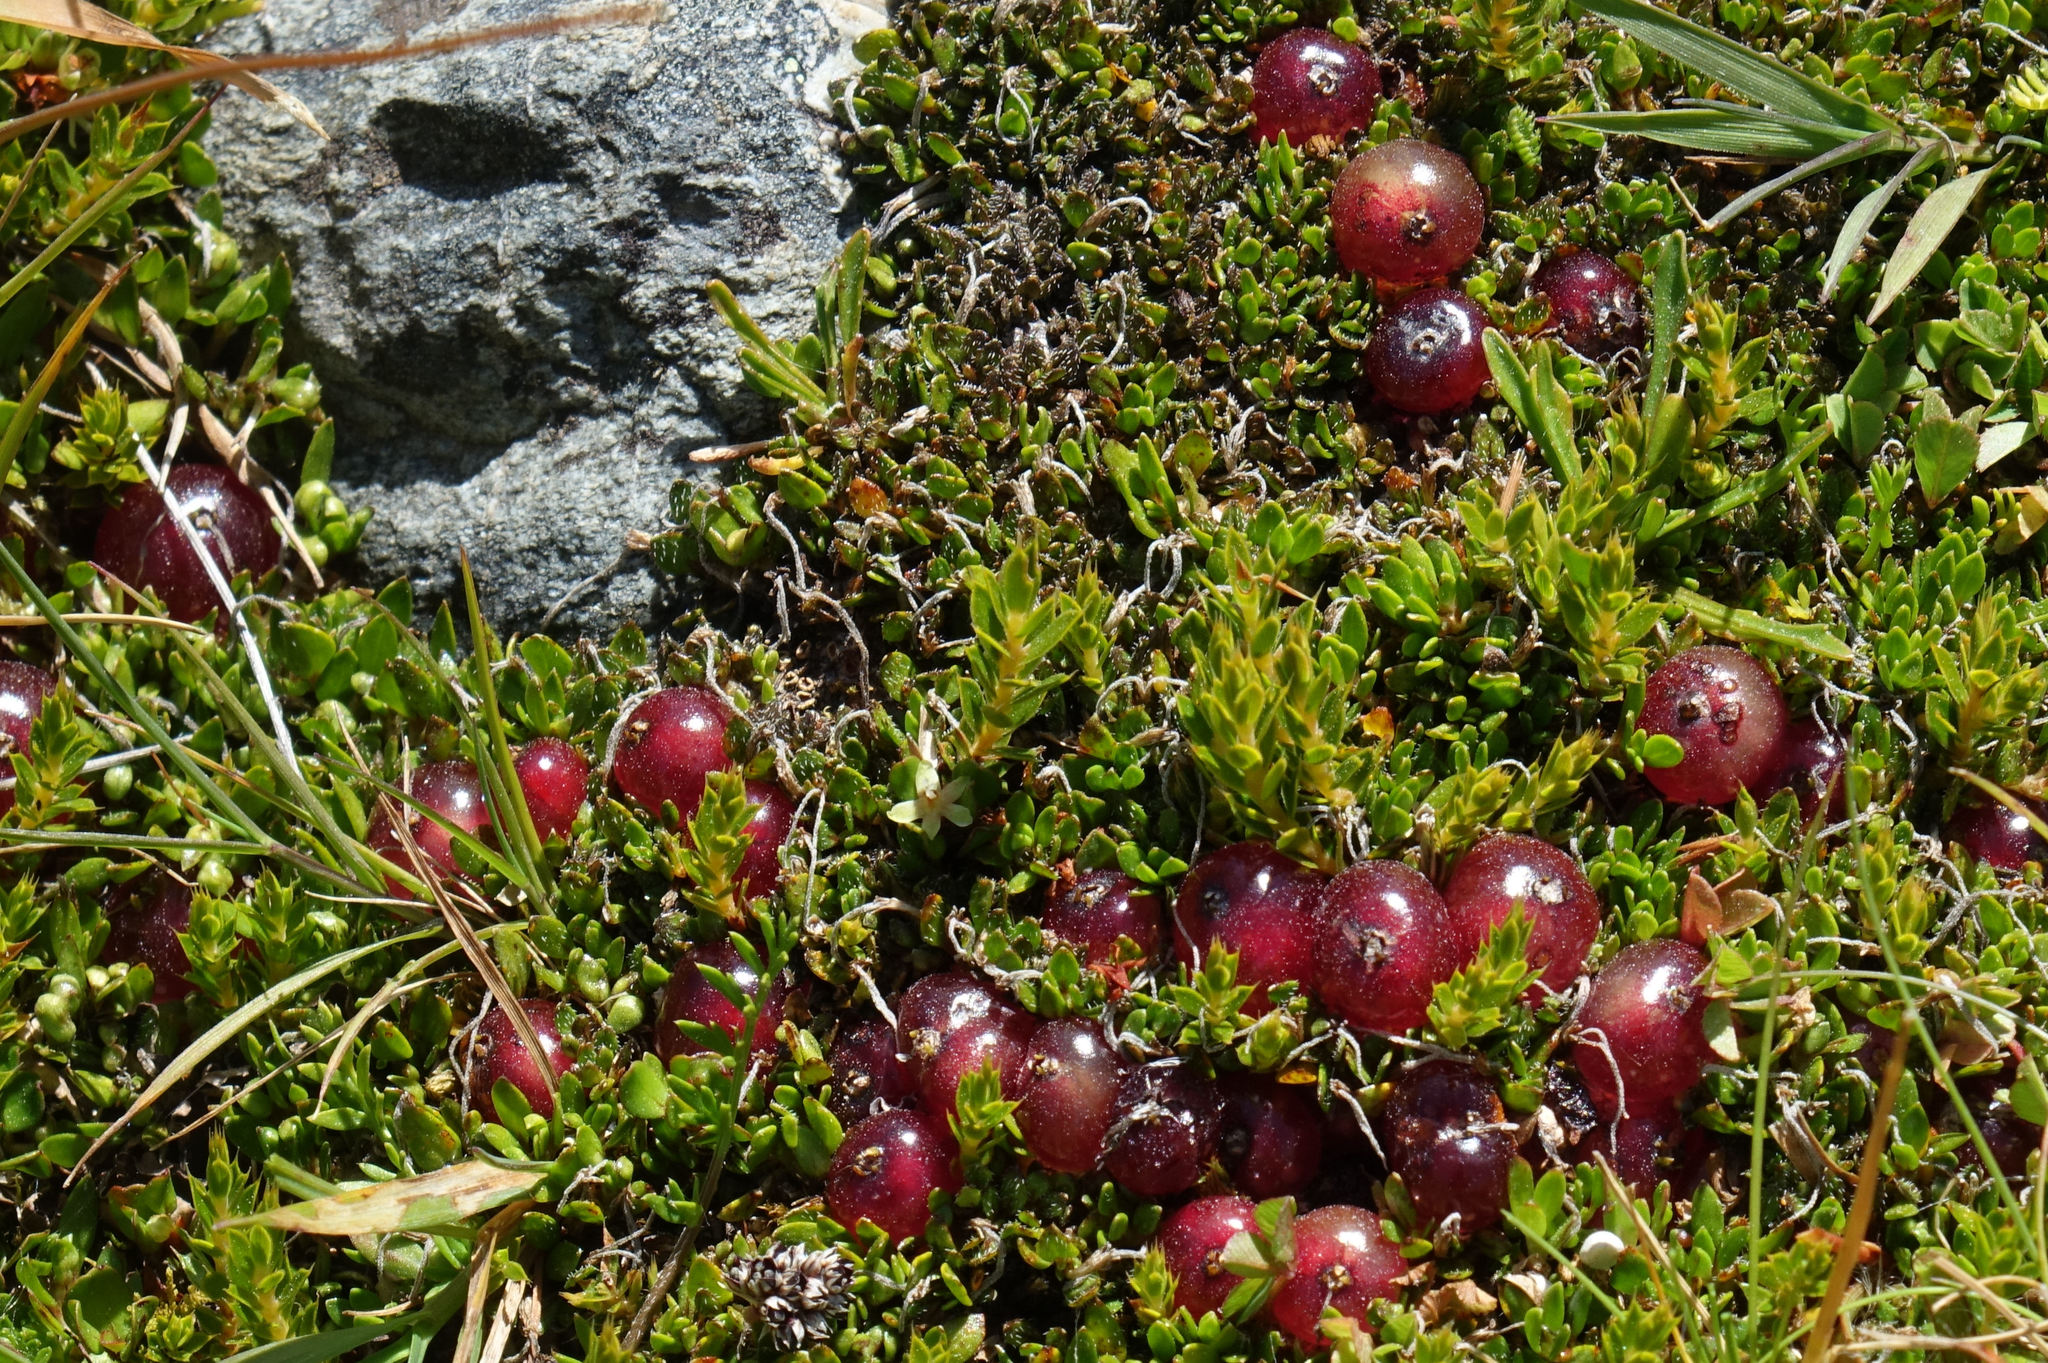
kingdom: Plantae
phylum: Tracheophyta
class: Magnoliopsida
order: Gentianales
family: Rubiaceae
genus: Coprosma
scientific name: Coprosma atropurpurea
